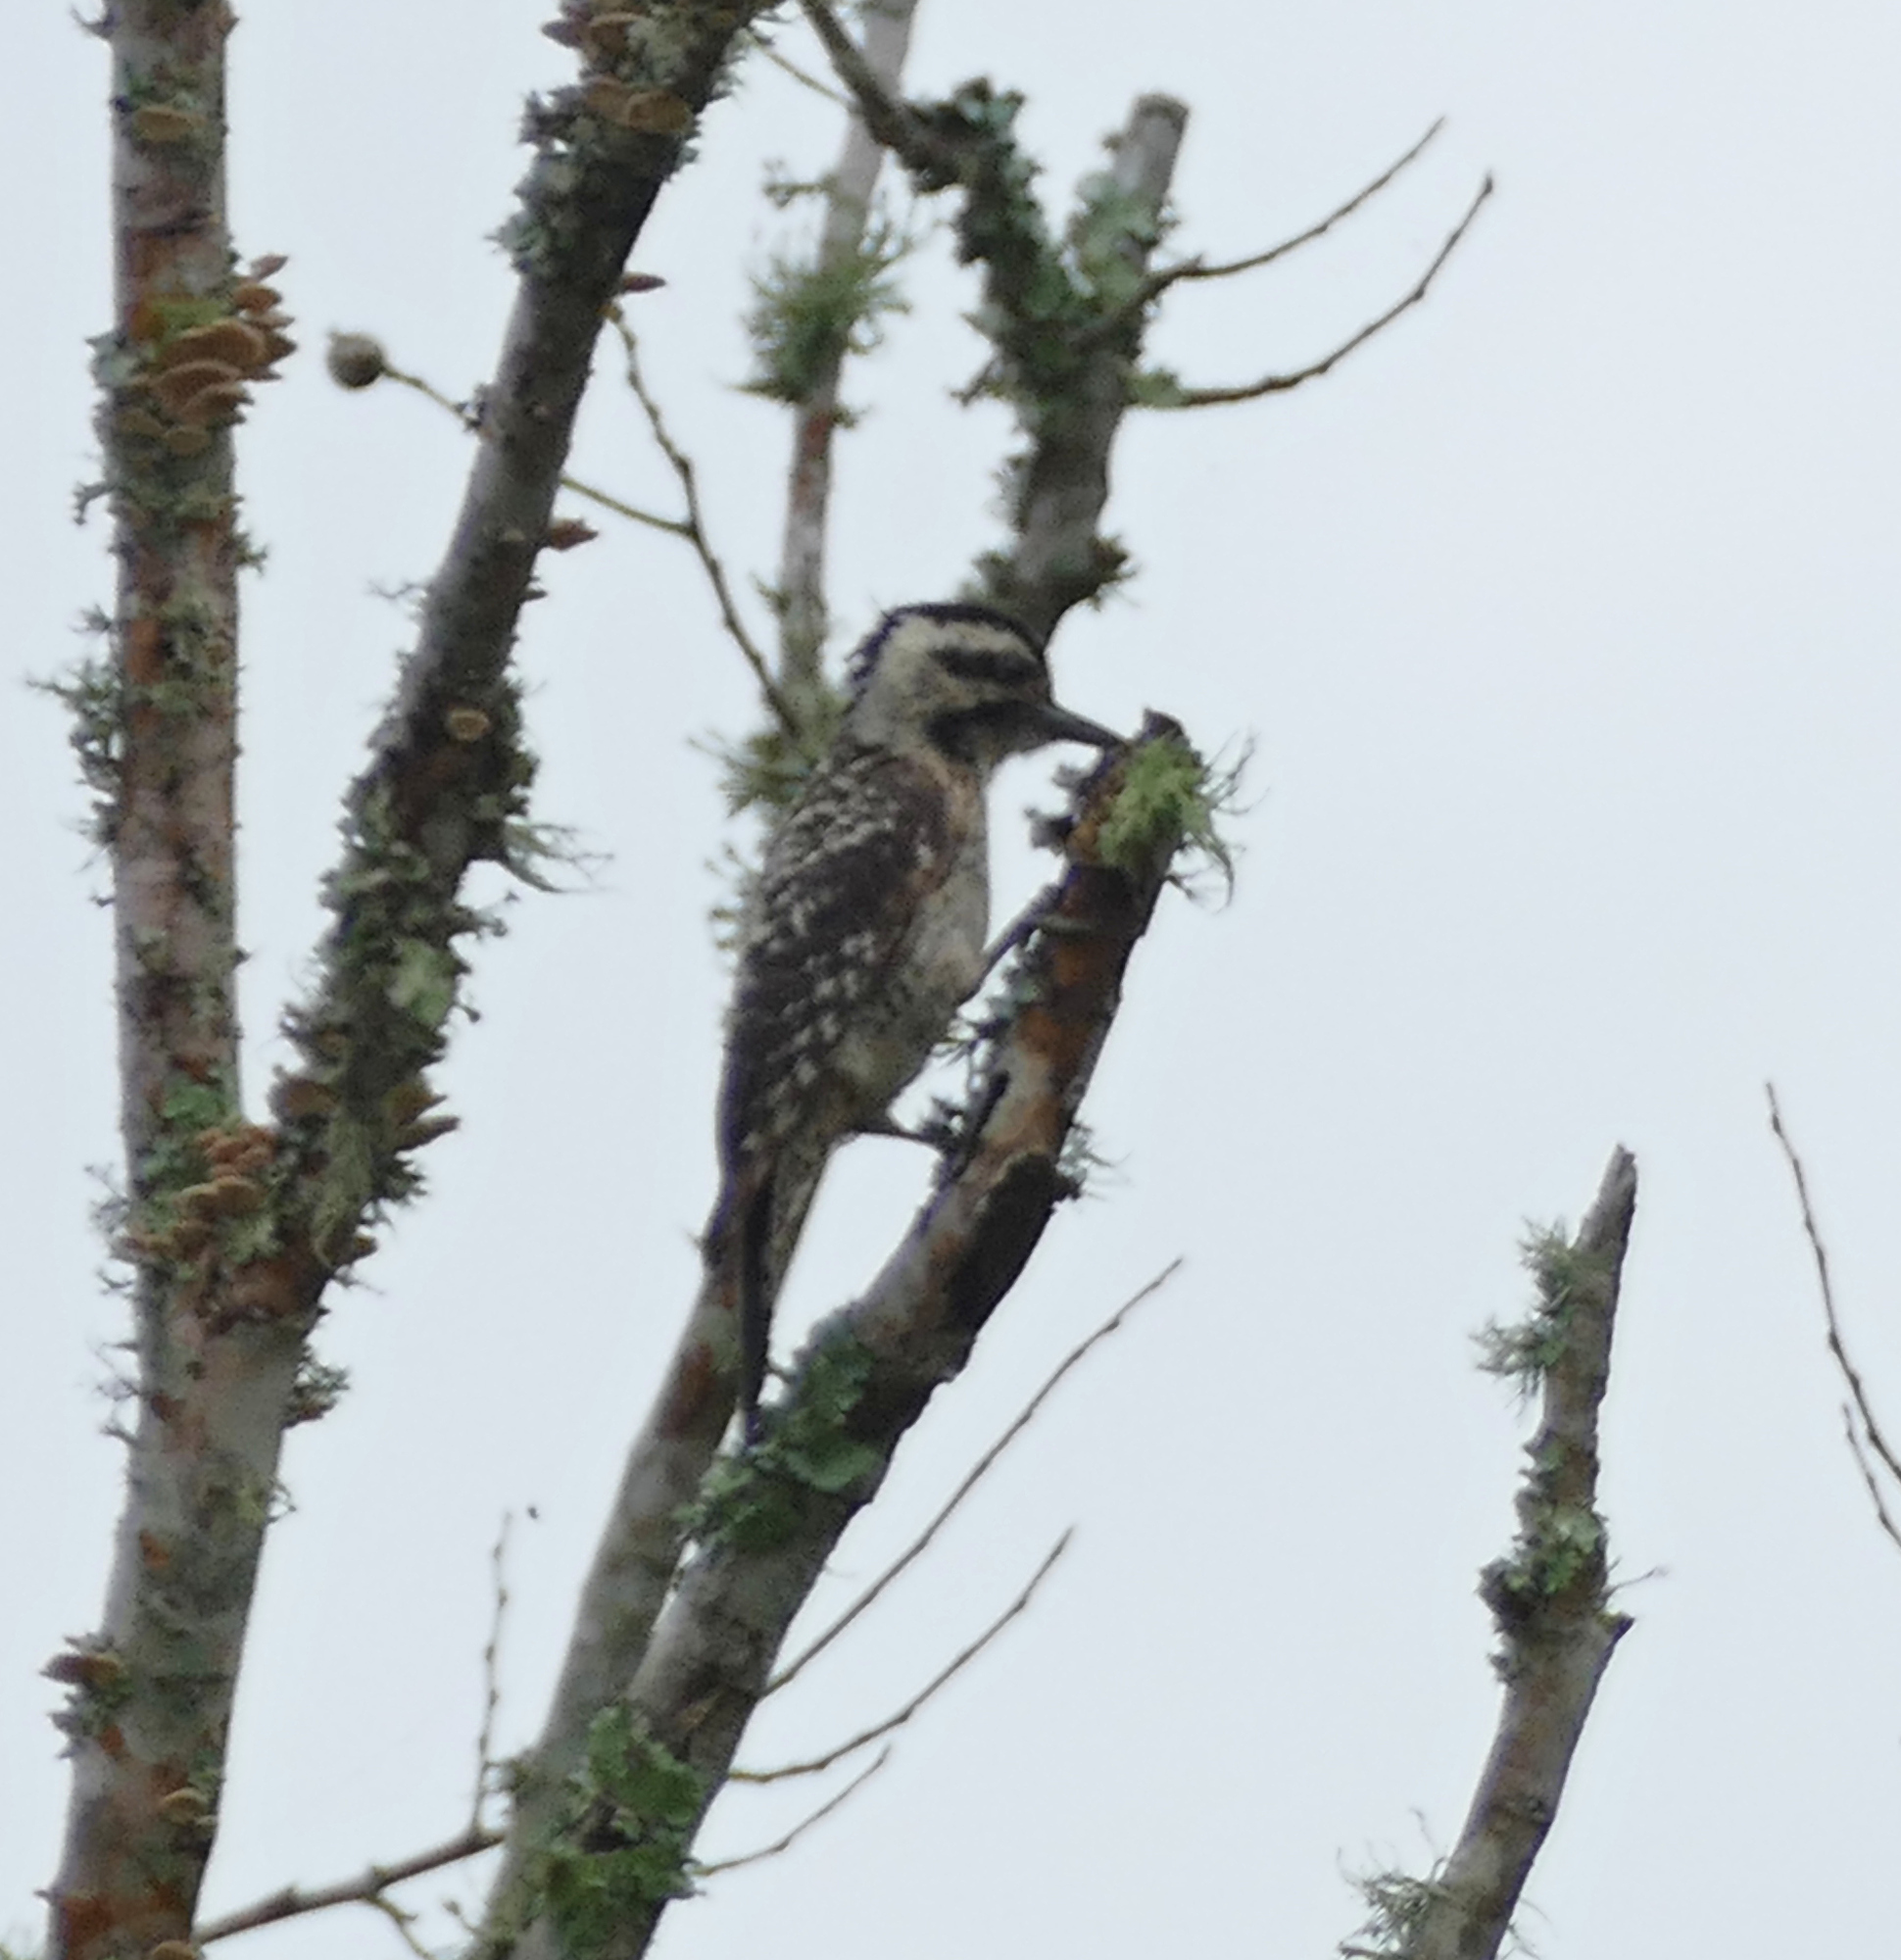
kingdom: Animalia
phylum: Chordata
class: Aves
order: Piciformes
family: Picidae
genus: Dryobates
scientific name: Dryobates scalaris
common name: Ladder-backed woodpecker
